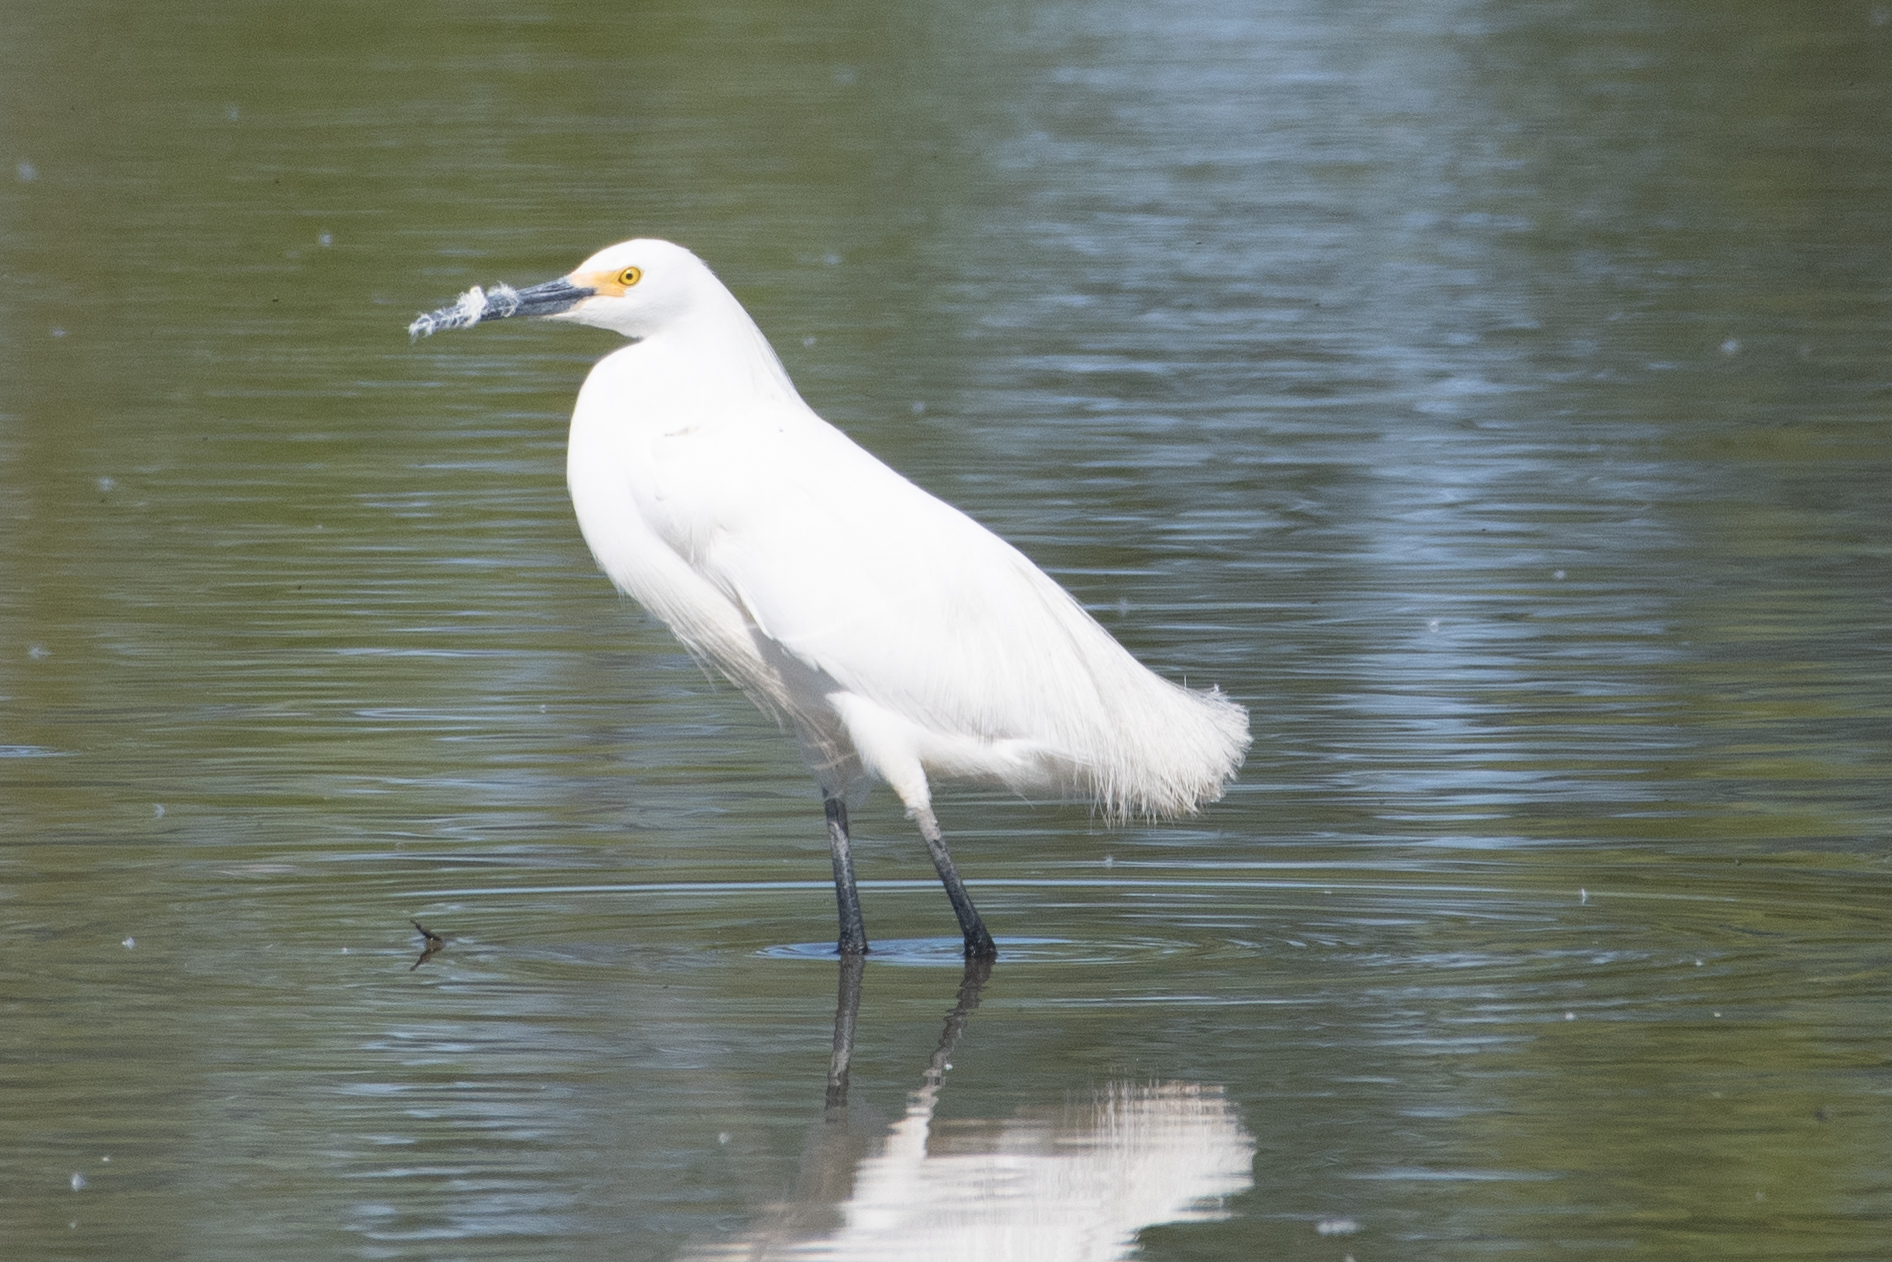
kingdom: Animalia
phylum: Chordata
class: Aves
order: Pelecaniformes
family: Ardeidae
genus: Egretta
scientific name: Egretta thula
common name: Snowy egret
